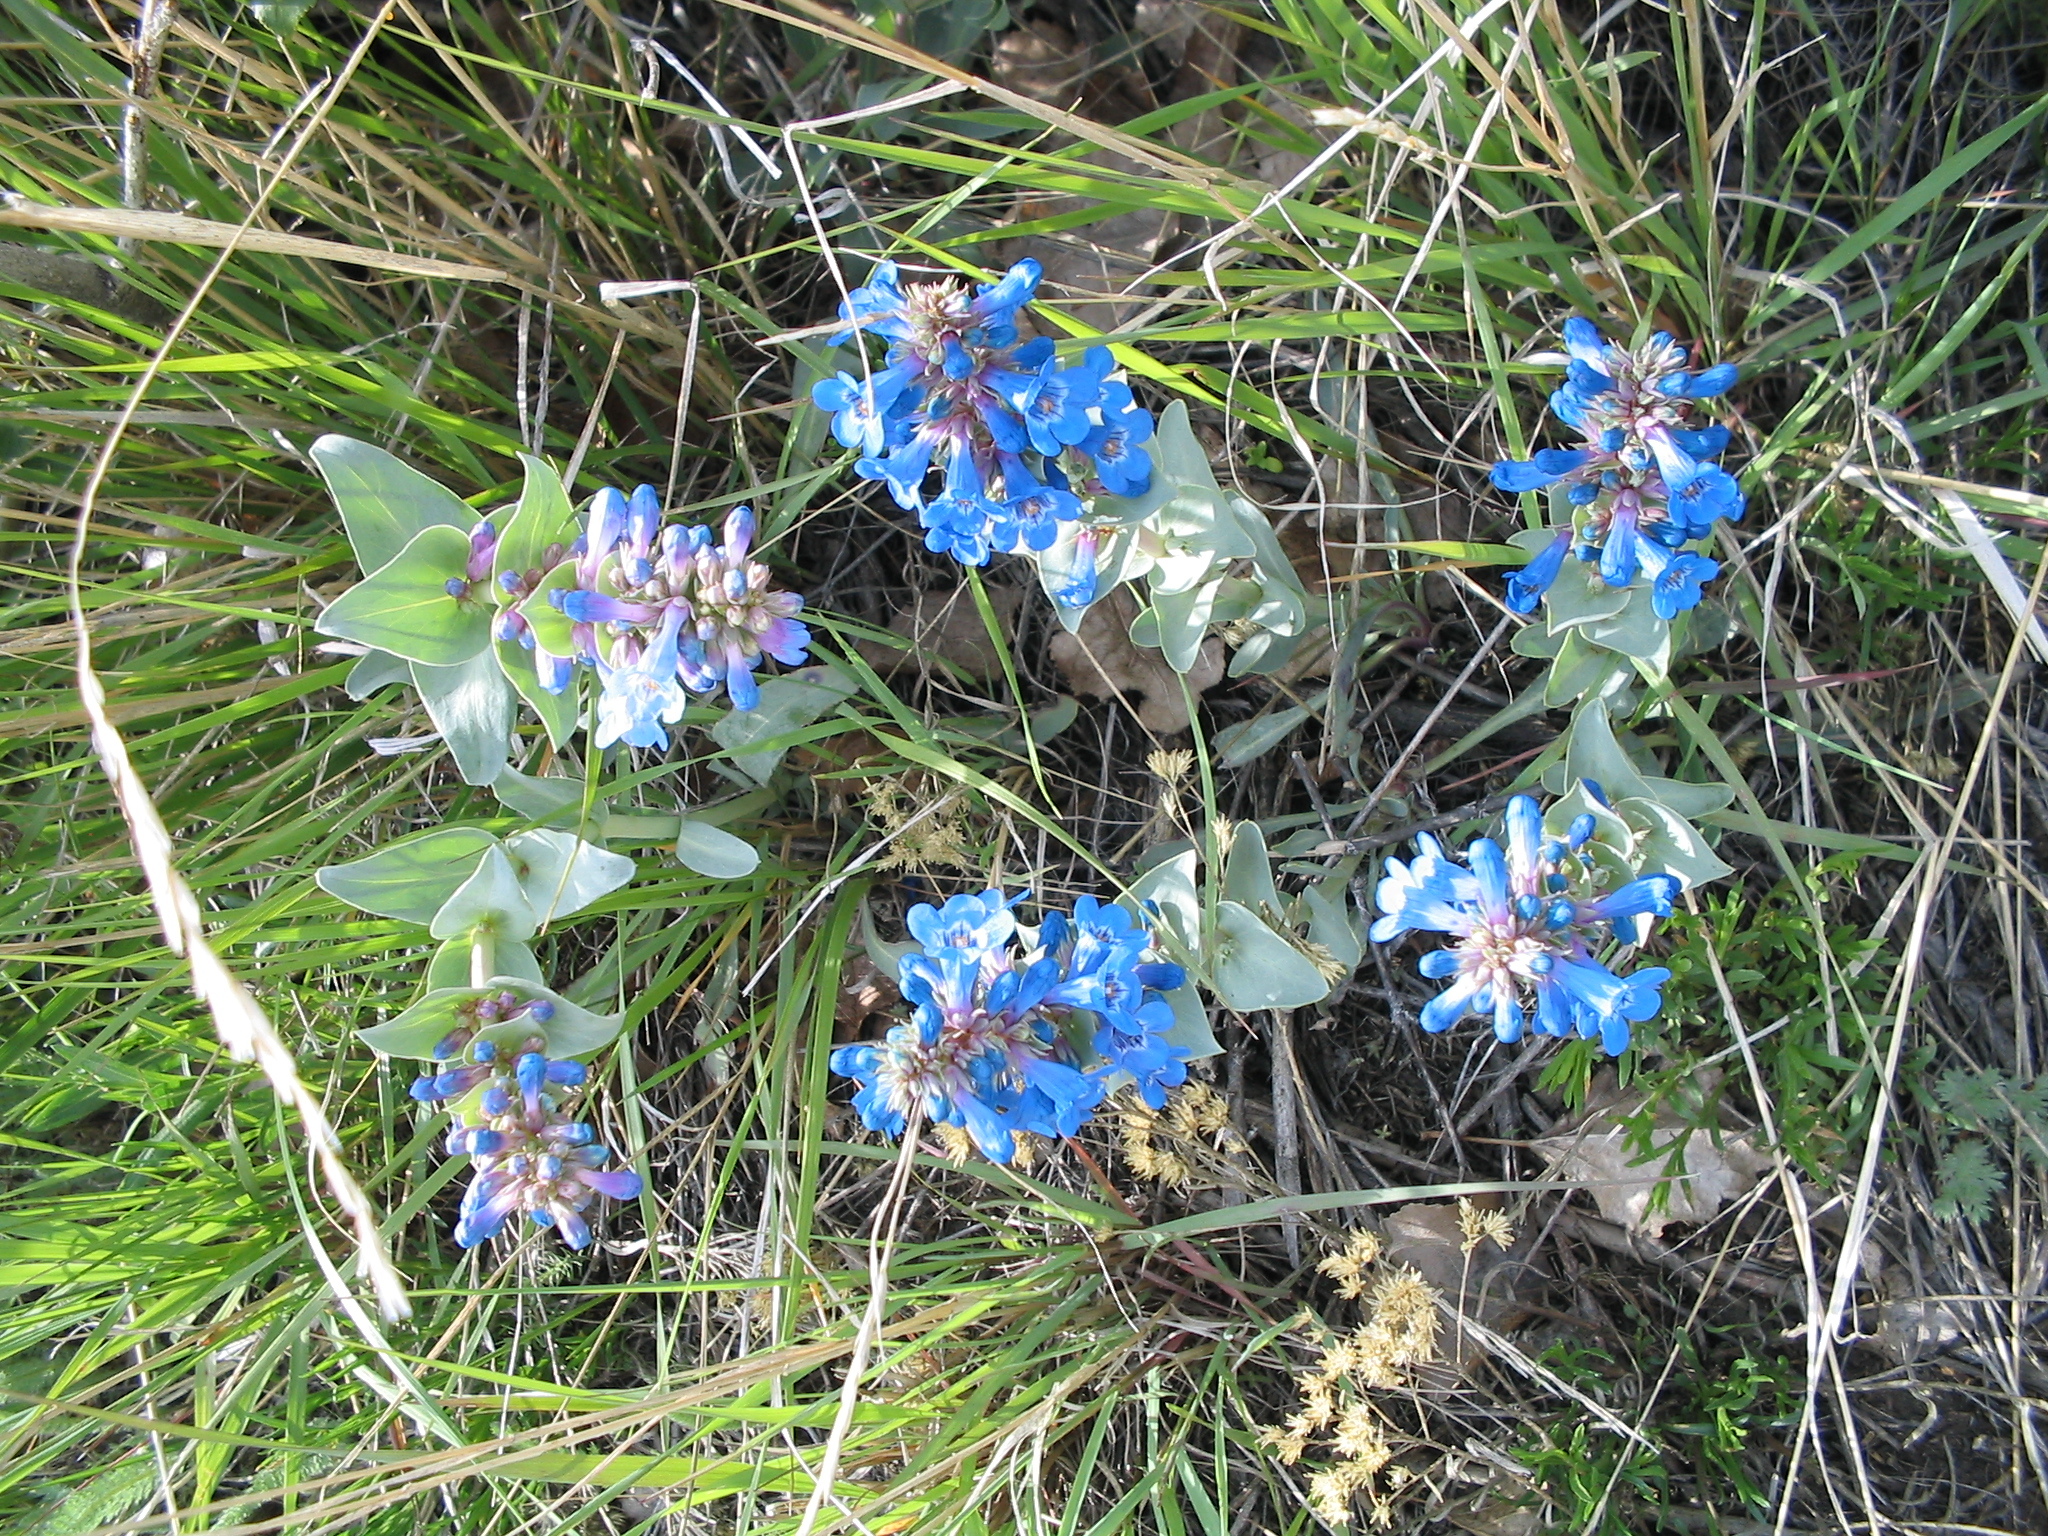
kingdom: Plantae
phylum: Tracheophyta
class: Magnoliopsida
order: Lamiales
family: Plantaginaceae
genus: Penstemon
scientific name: Penstemon nitidus
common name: Shining penstemon
